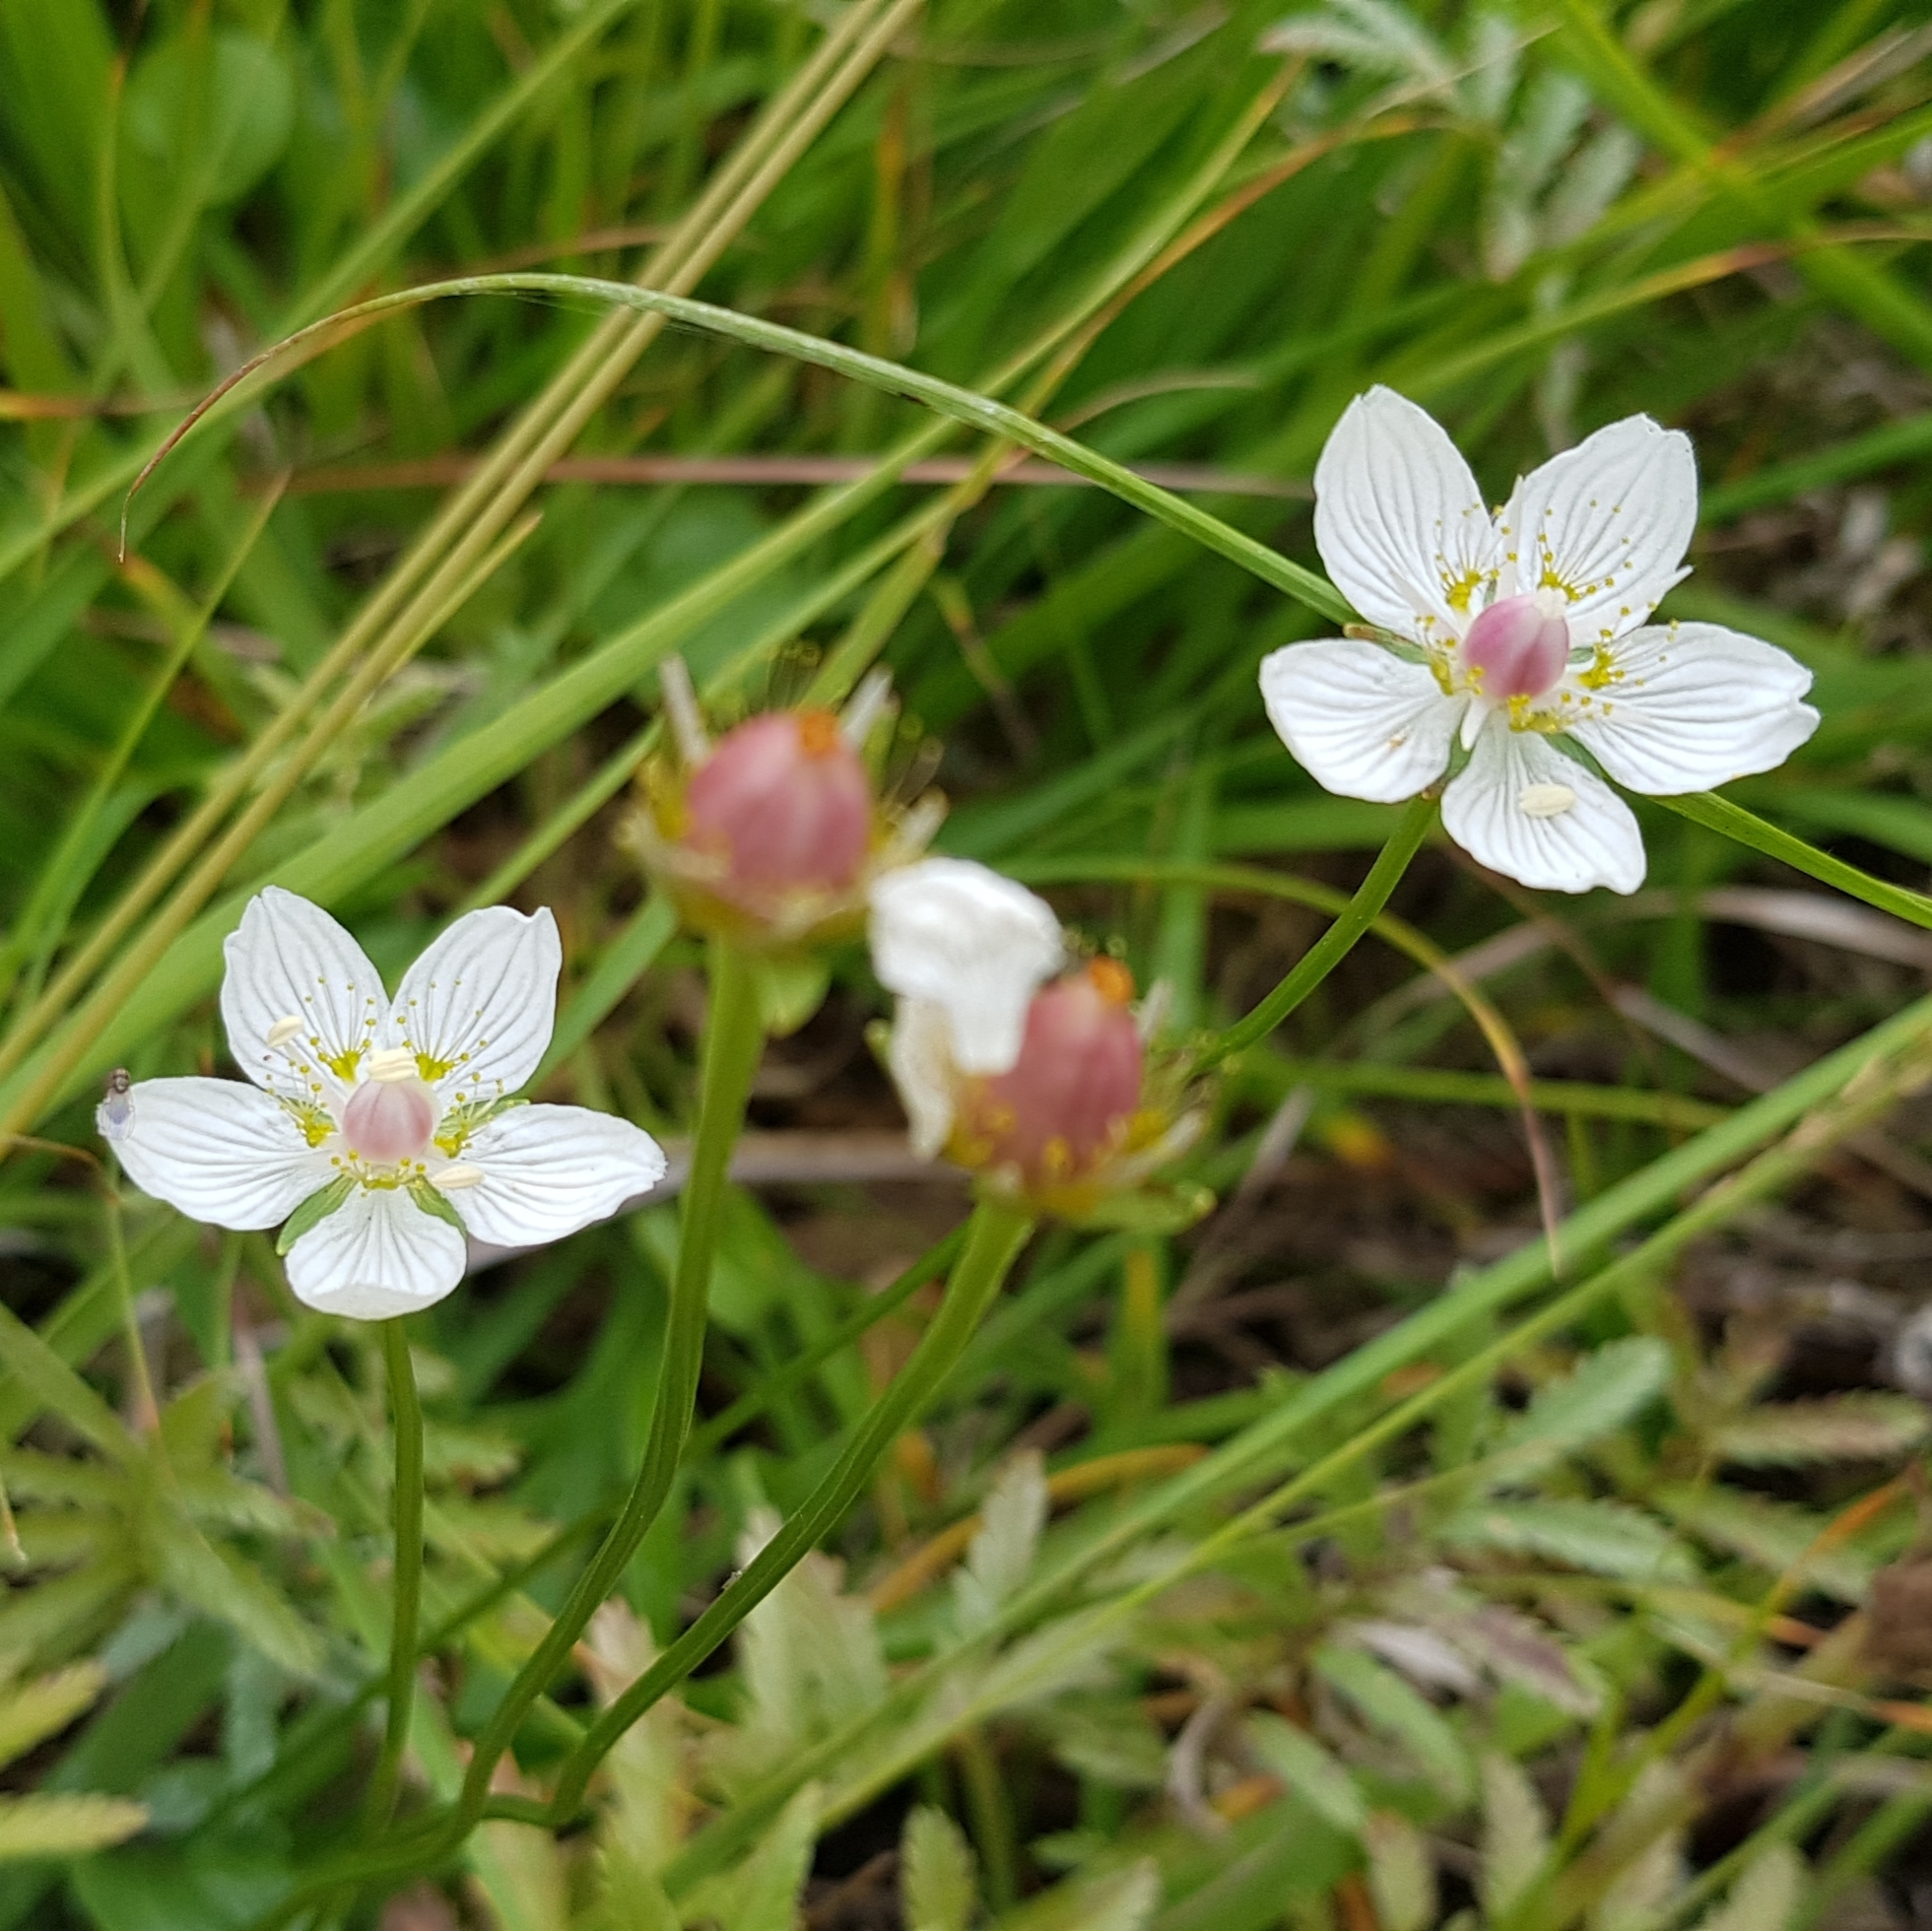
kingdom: Plantae
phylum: Tracheophyta
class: Magnoliopsida
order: Celastrales
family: Parnassiaceae
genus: Parnassia
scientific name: Parnassia palustris
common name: Grass-of-parnassus
